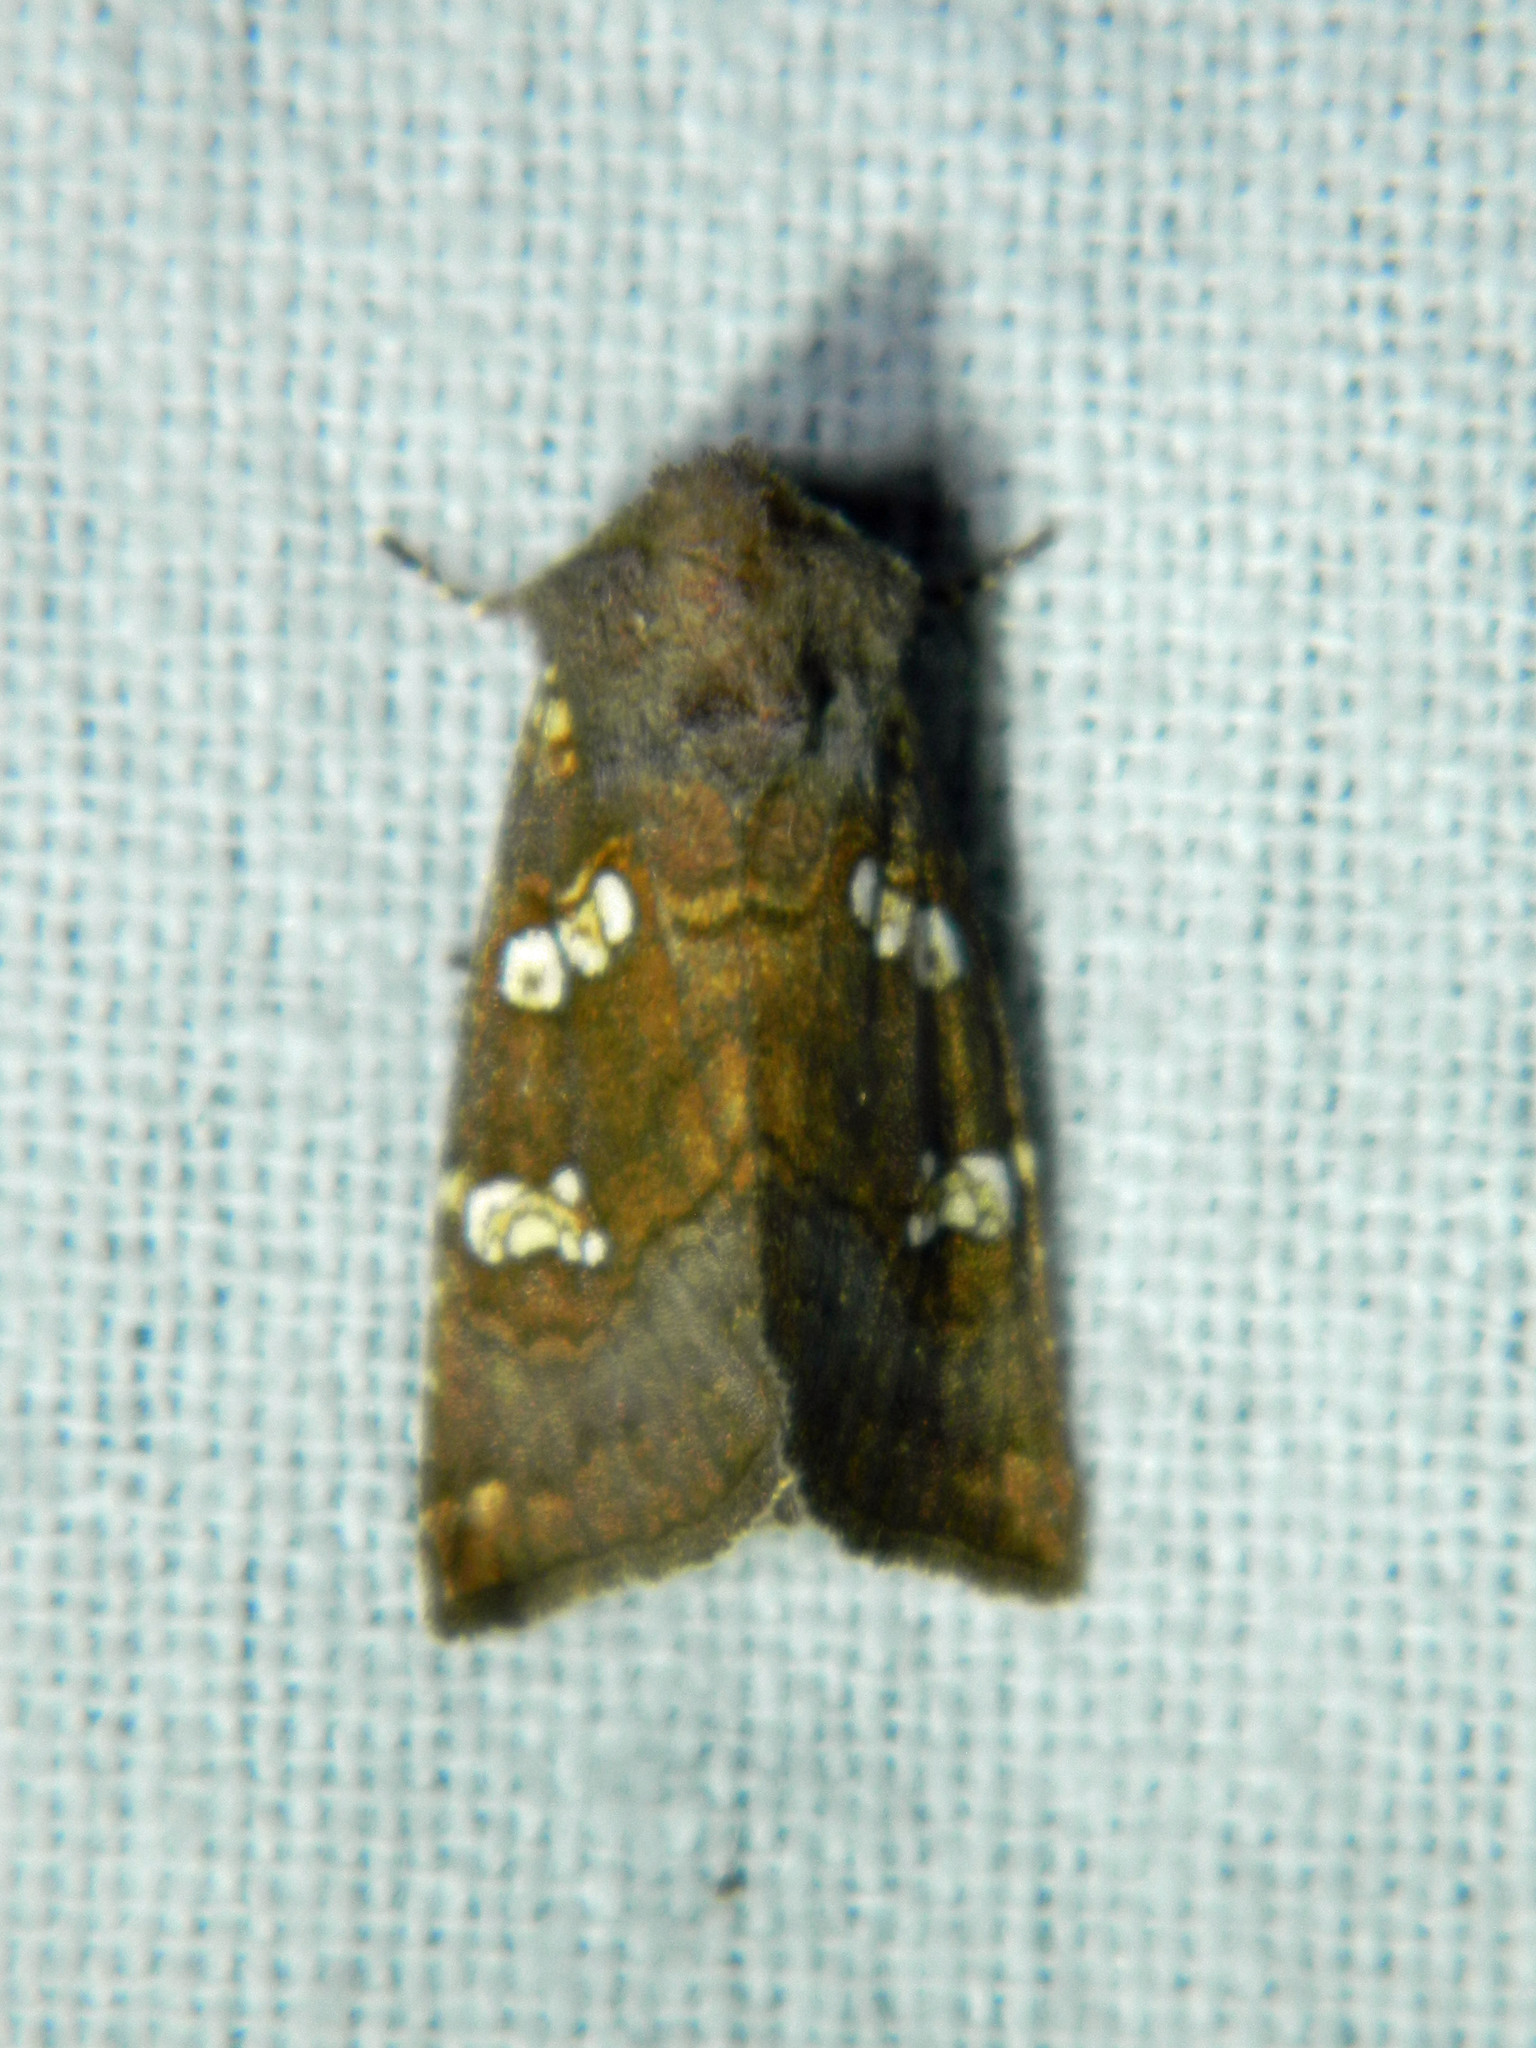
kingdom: Animalia
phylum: Arthropoda
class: Insecta
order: Lepidoptera
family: Noctuidae
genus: Papaipema
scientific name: Papaipema unimoda
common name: Meadow rue borer moth
